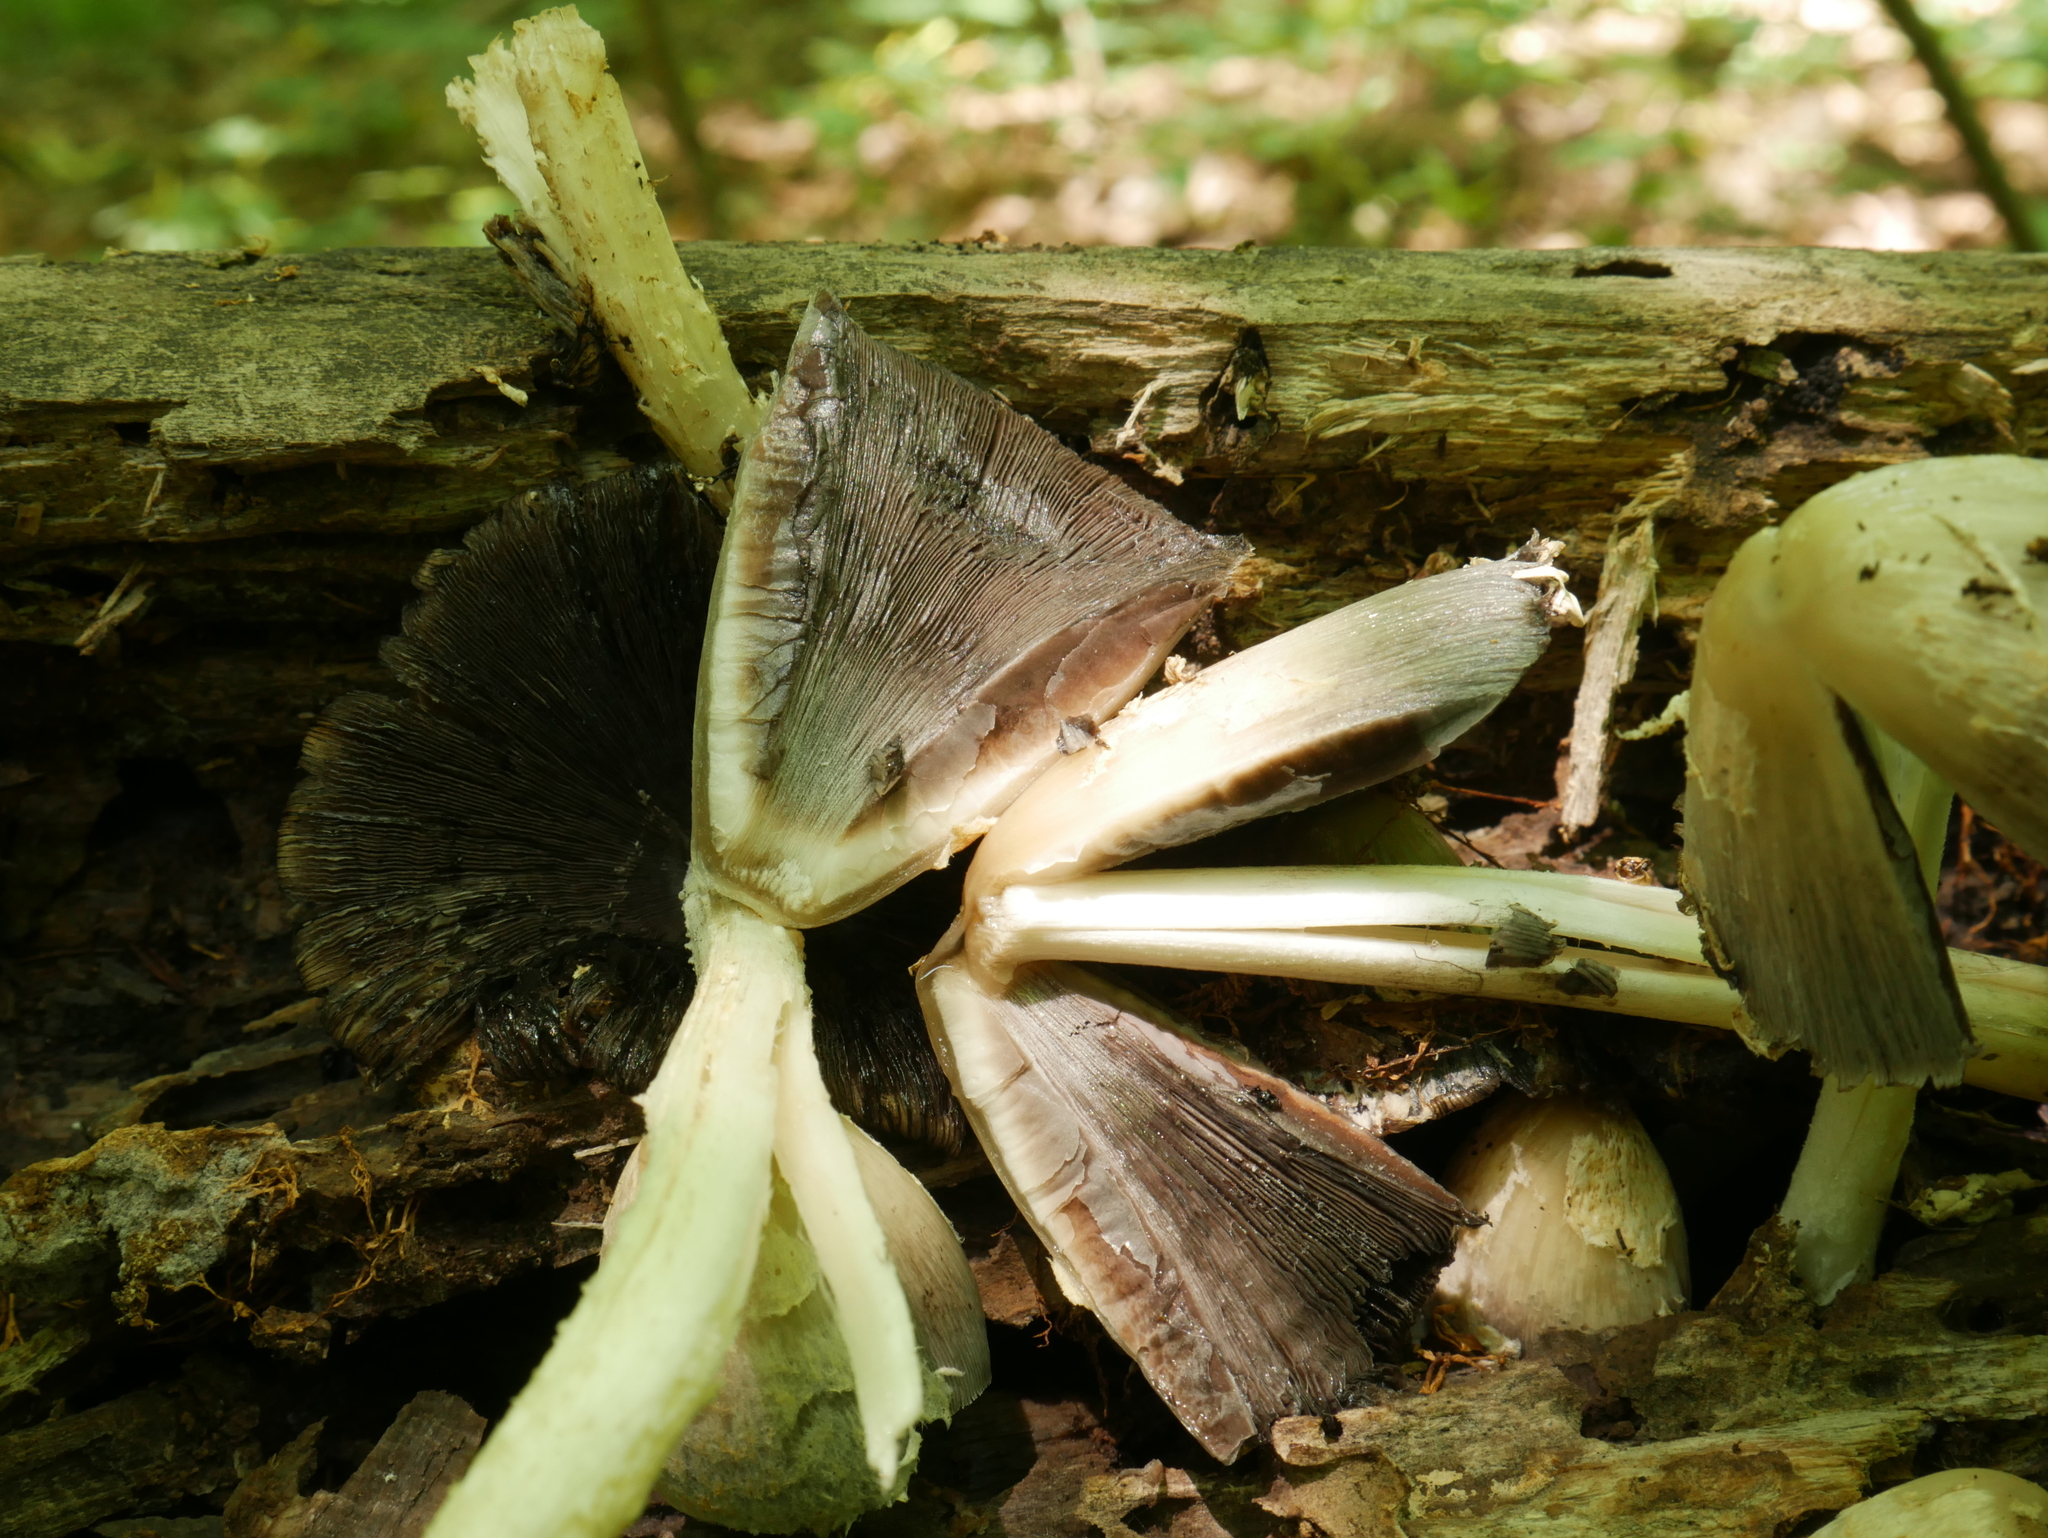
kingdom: Fungi
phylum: Basidiomycota
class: Agaricomycetes
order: Agaricales
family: Psathyrellaceae
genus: Coprinopsis
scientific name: Coprinopsis variegata
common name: Scaly ink cap
